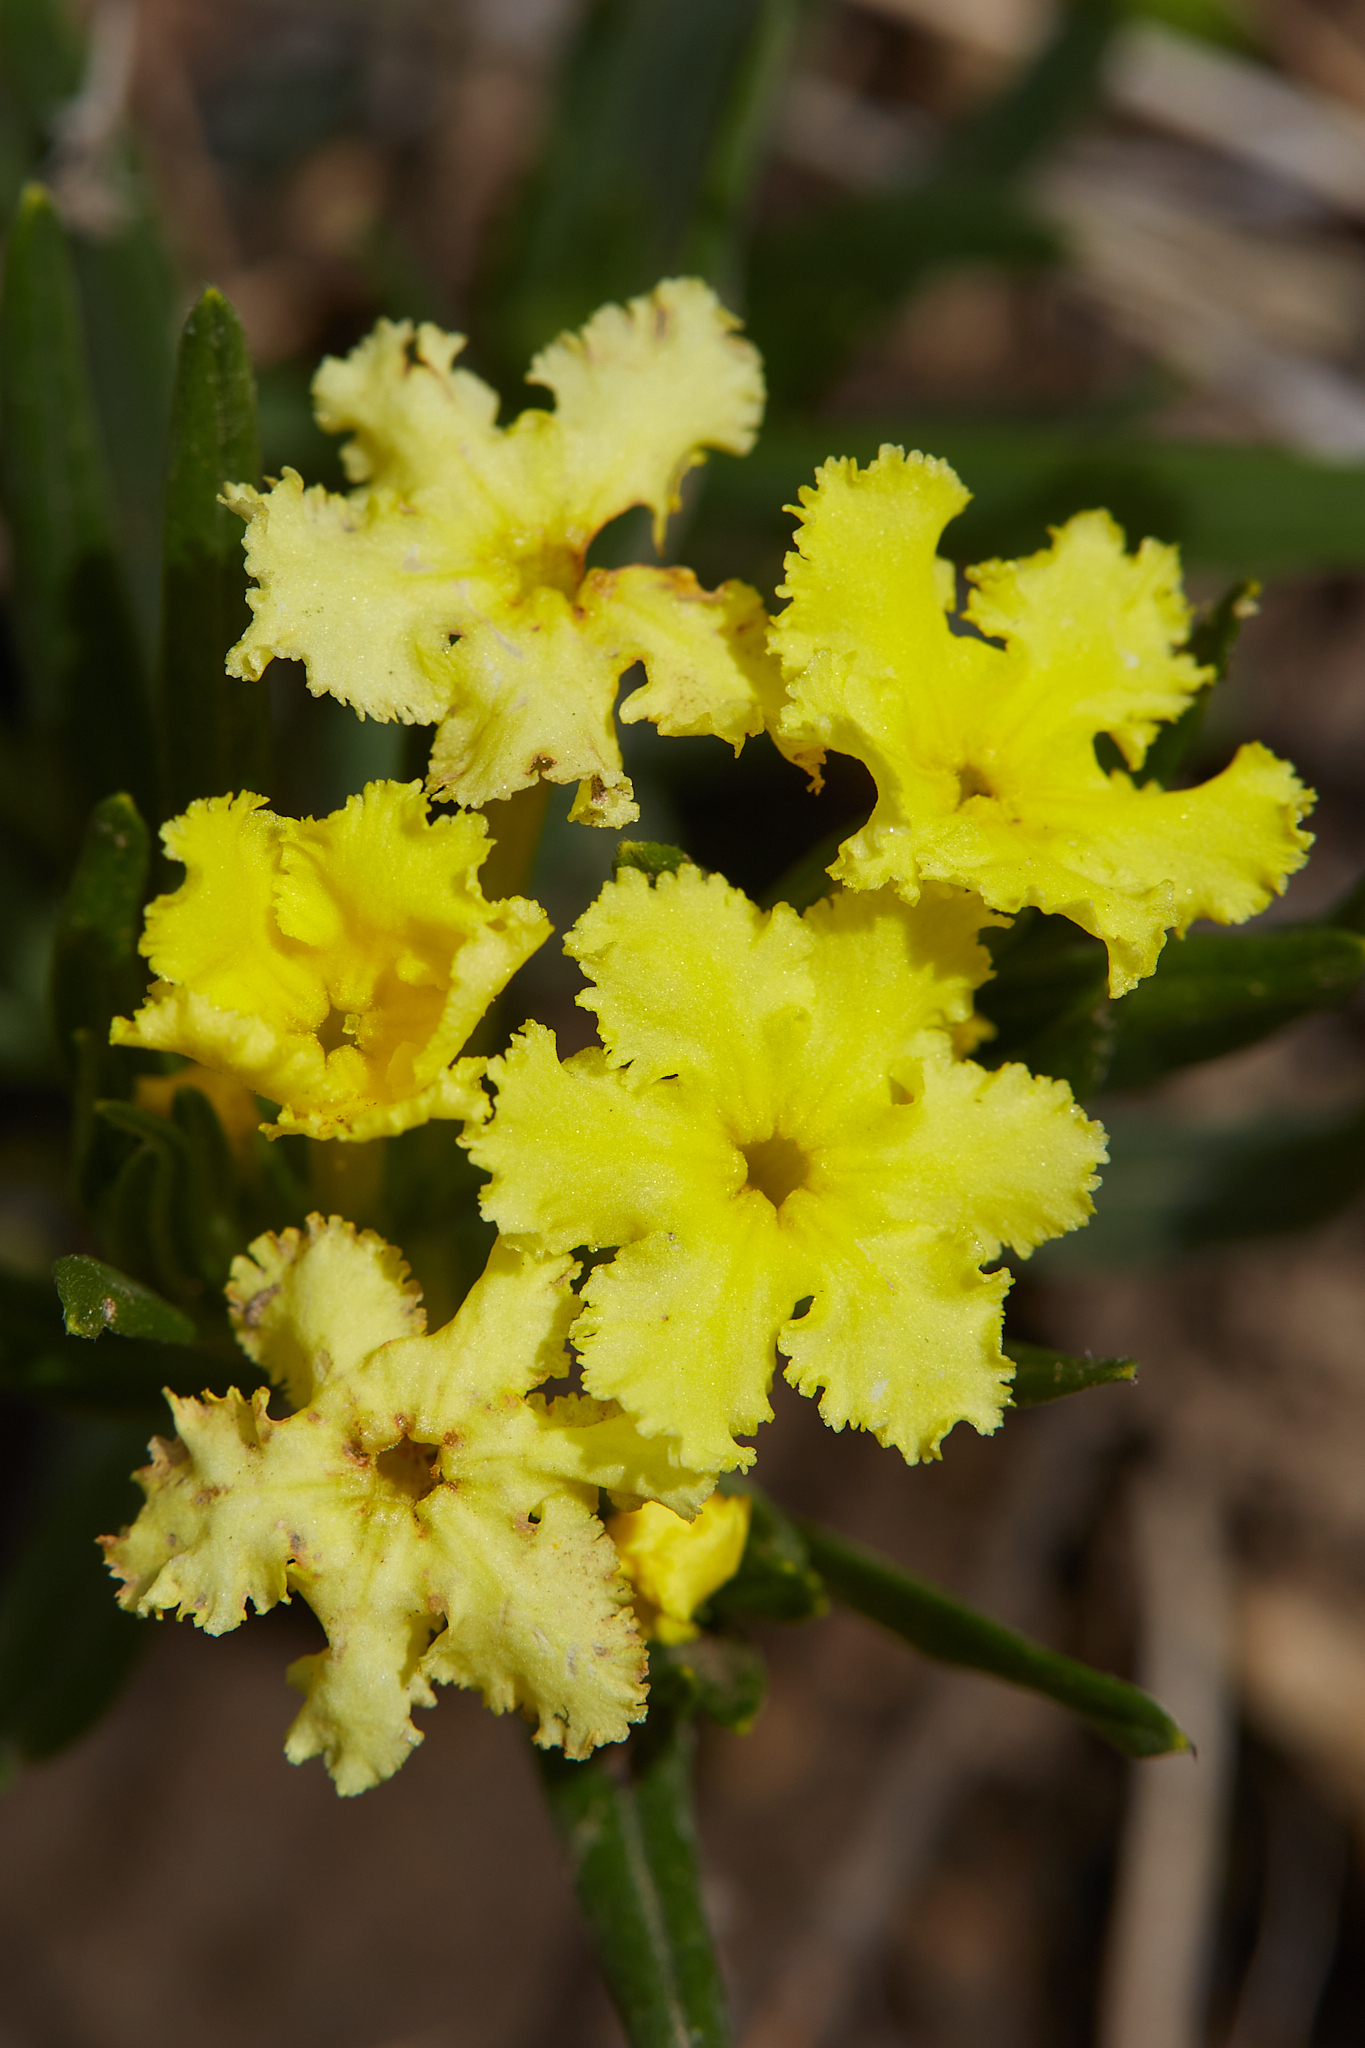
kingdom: Plantae
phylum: Tracheophyta
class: Magnoliopsida
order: Boraginales
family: Boraginaceae
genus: Lithospermum
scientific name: Lithospermum incisum
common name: Fringed gromwell
